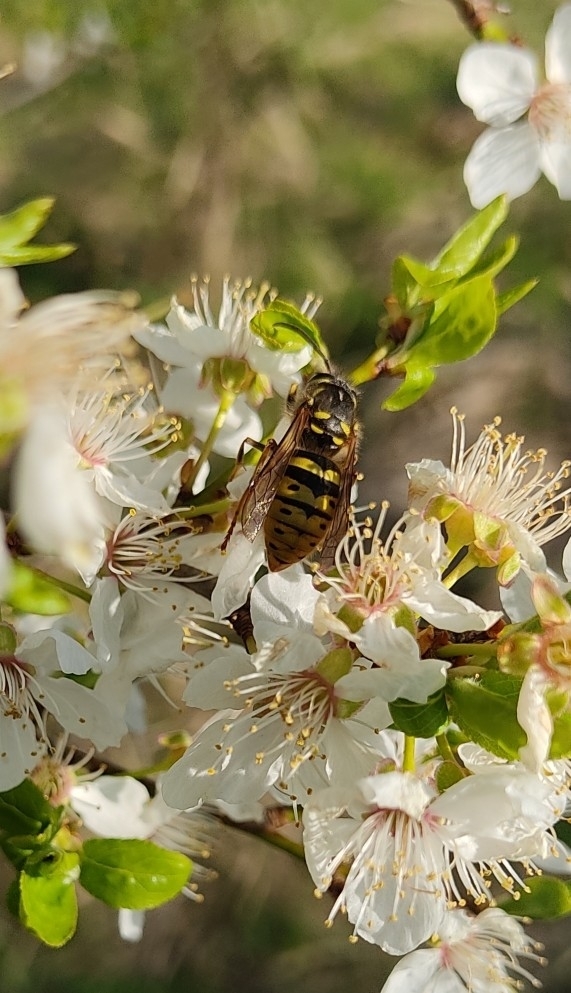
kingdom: Animalia
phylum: Arthropoda
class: Insecta
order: Hymenoptera
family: Vespidae
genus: Vespula
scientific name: Vespula vulgaris
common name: Common wasp
